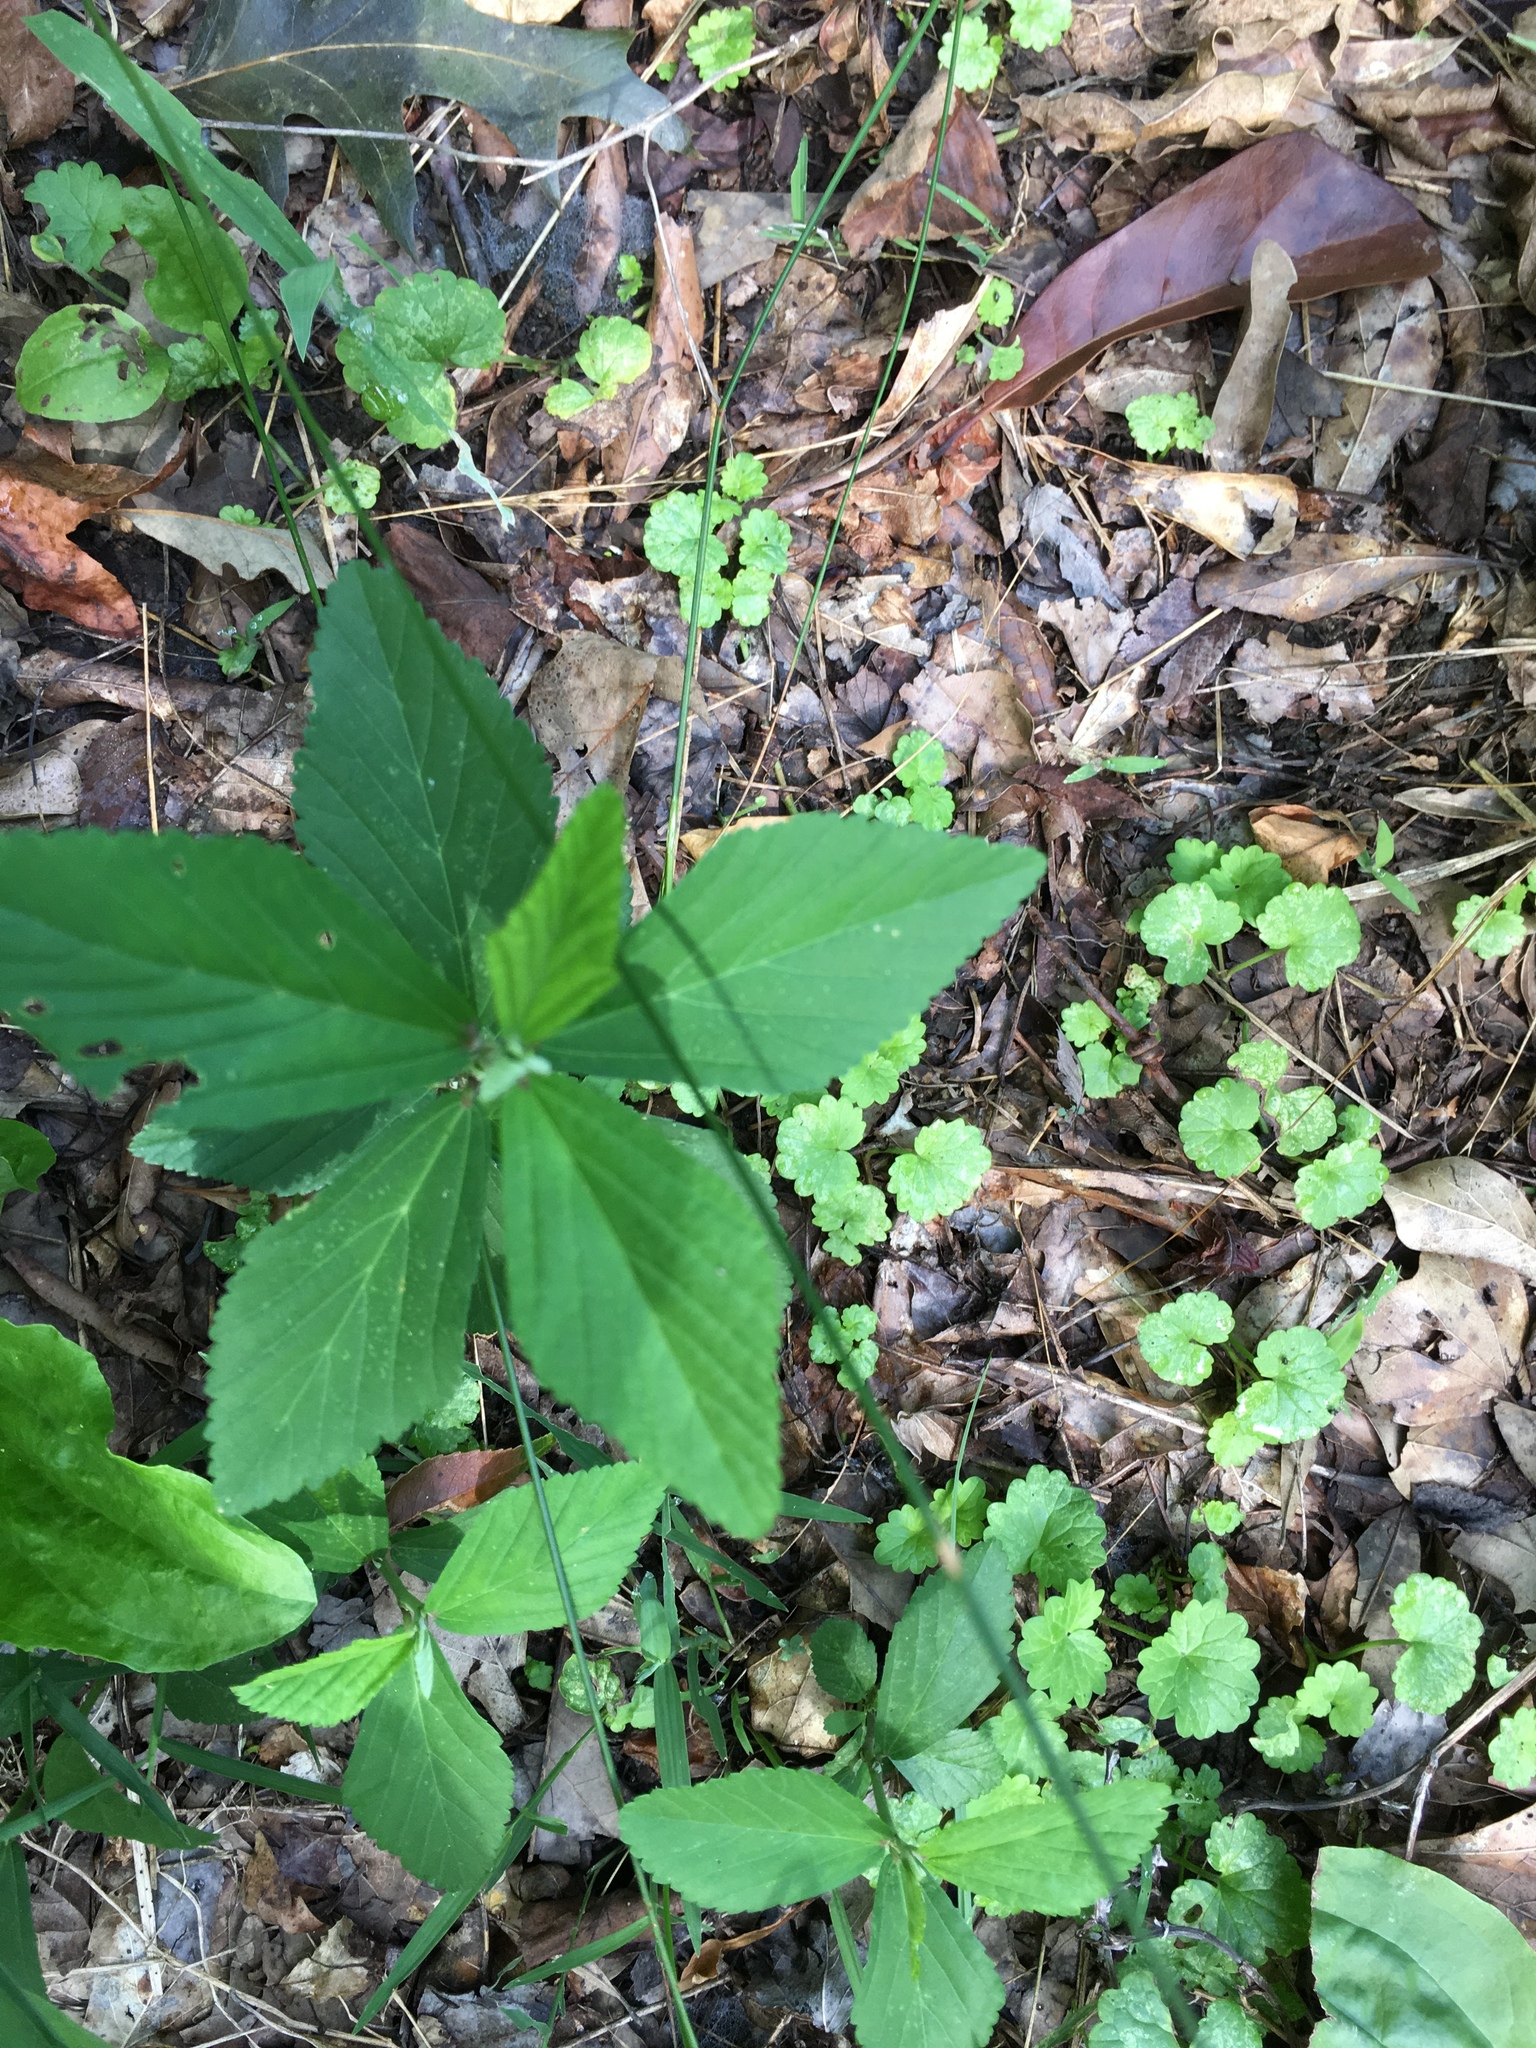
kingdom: Plantae
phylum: Tracheophyta
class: Magnoliopsida
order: Malvales
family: Malvaceae
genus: Sida
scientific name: Sida rhombifolia
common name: Queensland-hemp
